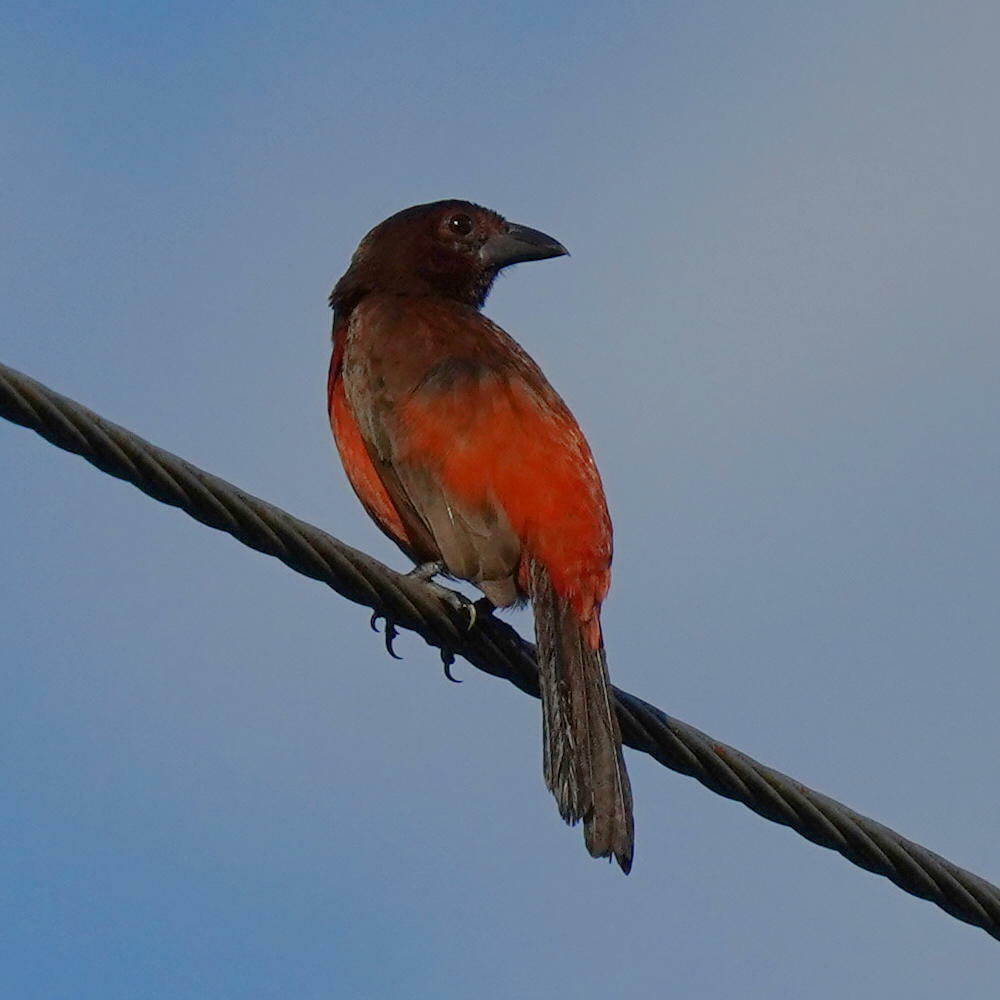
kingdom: Animalia
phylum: Chordata
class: Aves
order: Passeriformes
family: Thraupidae
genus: Ramphocelus
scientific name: Ramphocelus dimidiatus
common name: Crimson-backed tanager
